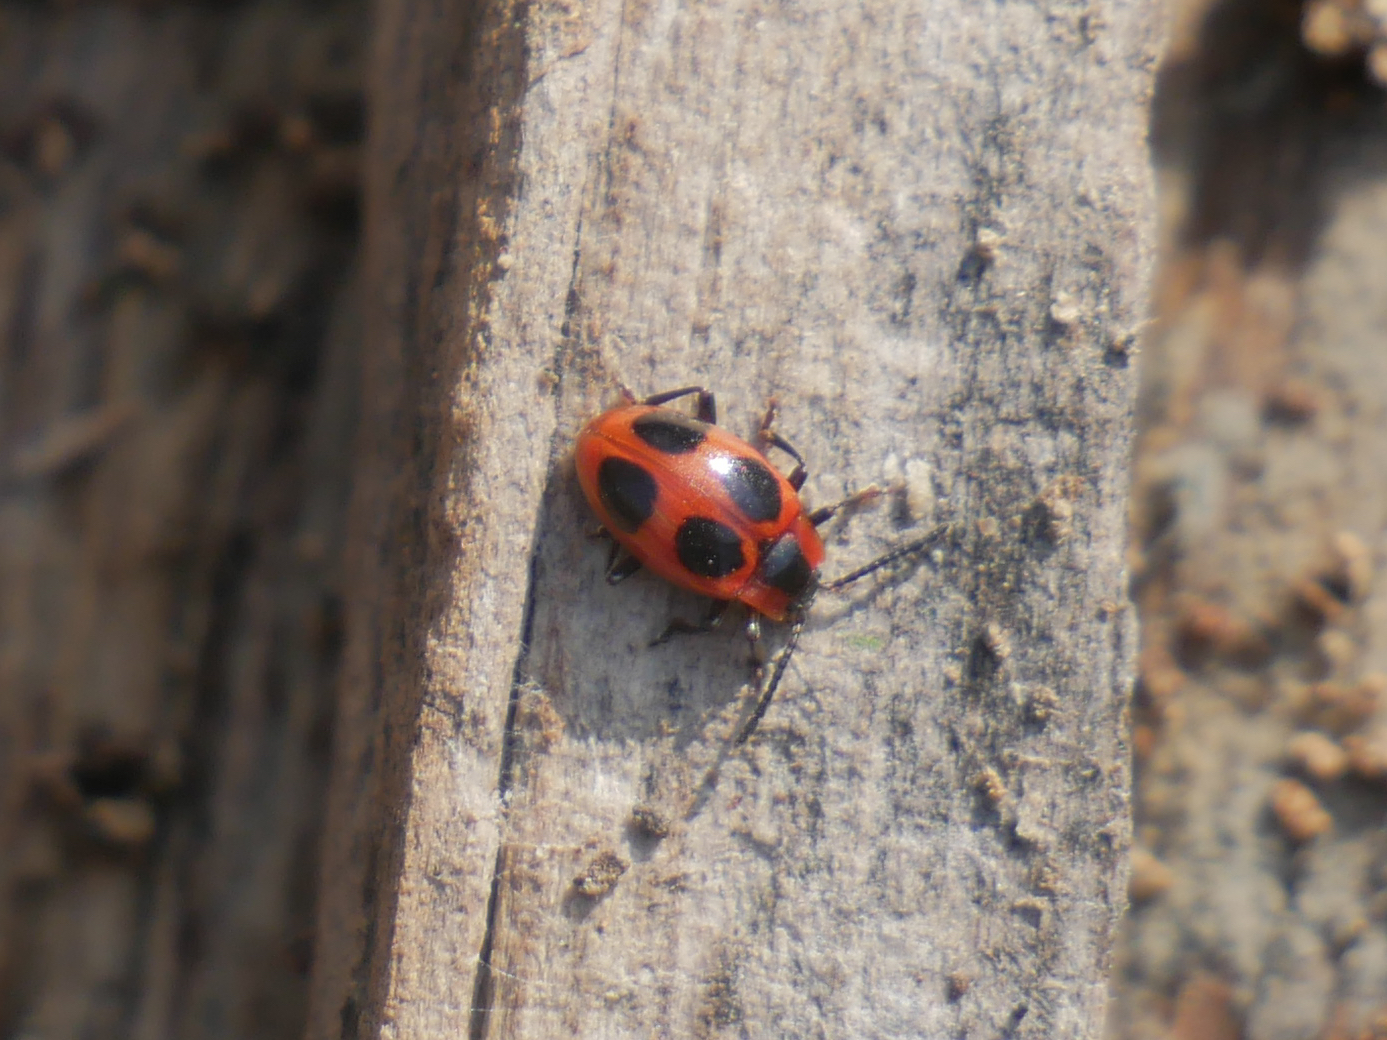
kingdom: Animalia
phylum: Arthropoda
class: Insecta
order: Coleoptera
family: Endomychidae
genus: Endomychus
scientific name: Endomychus coccineus
